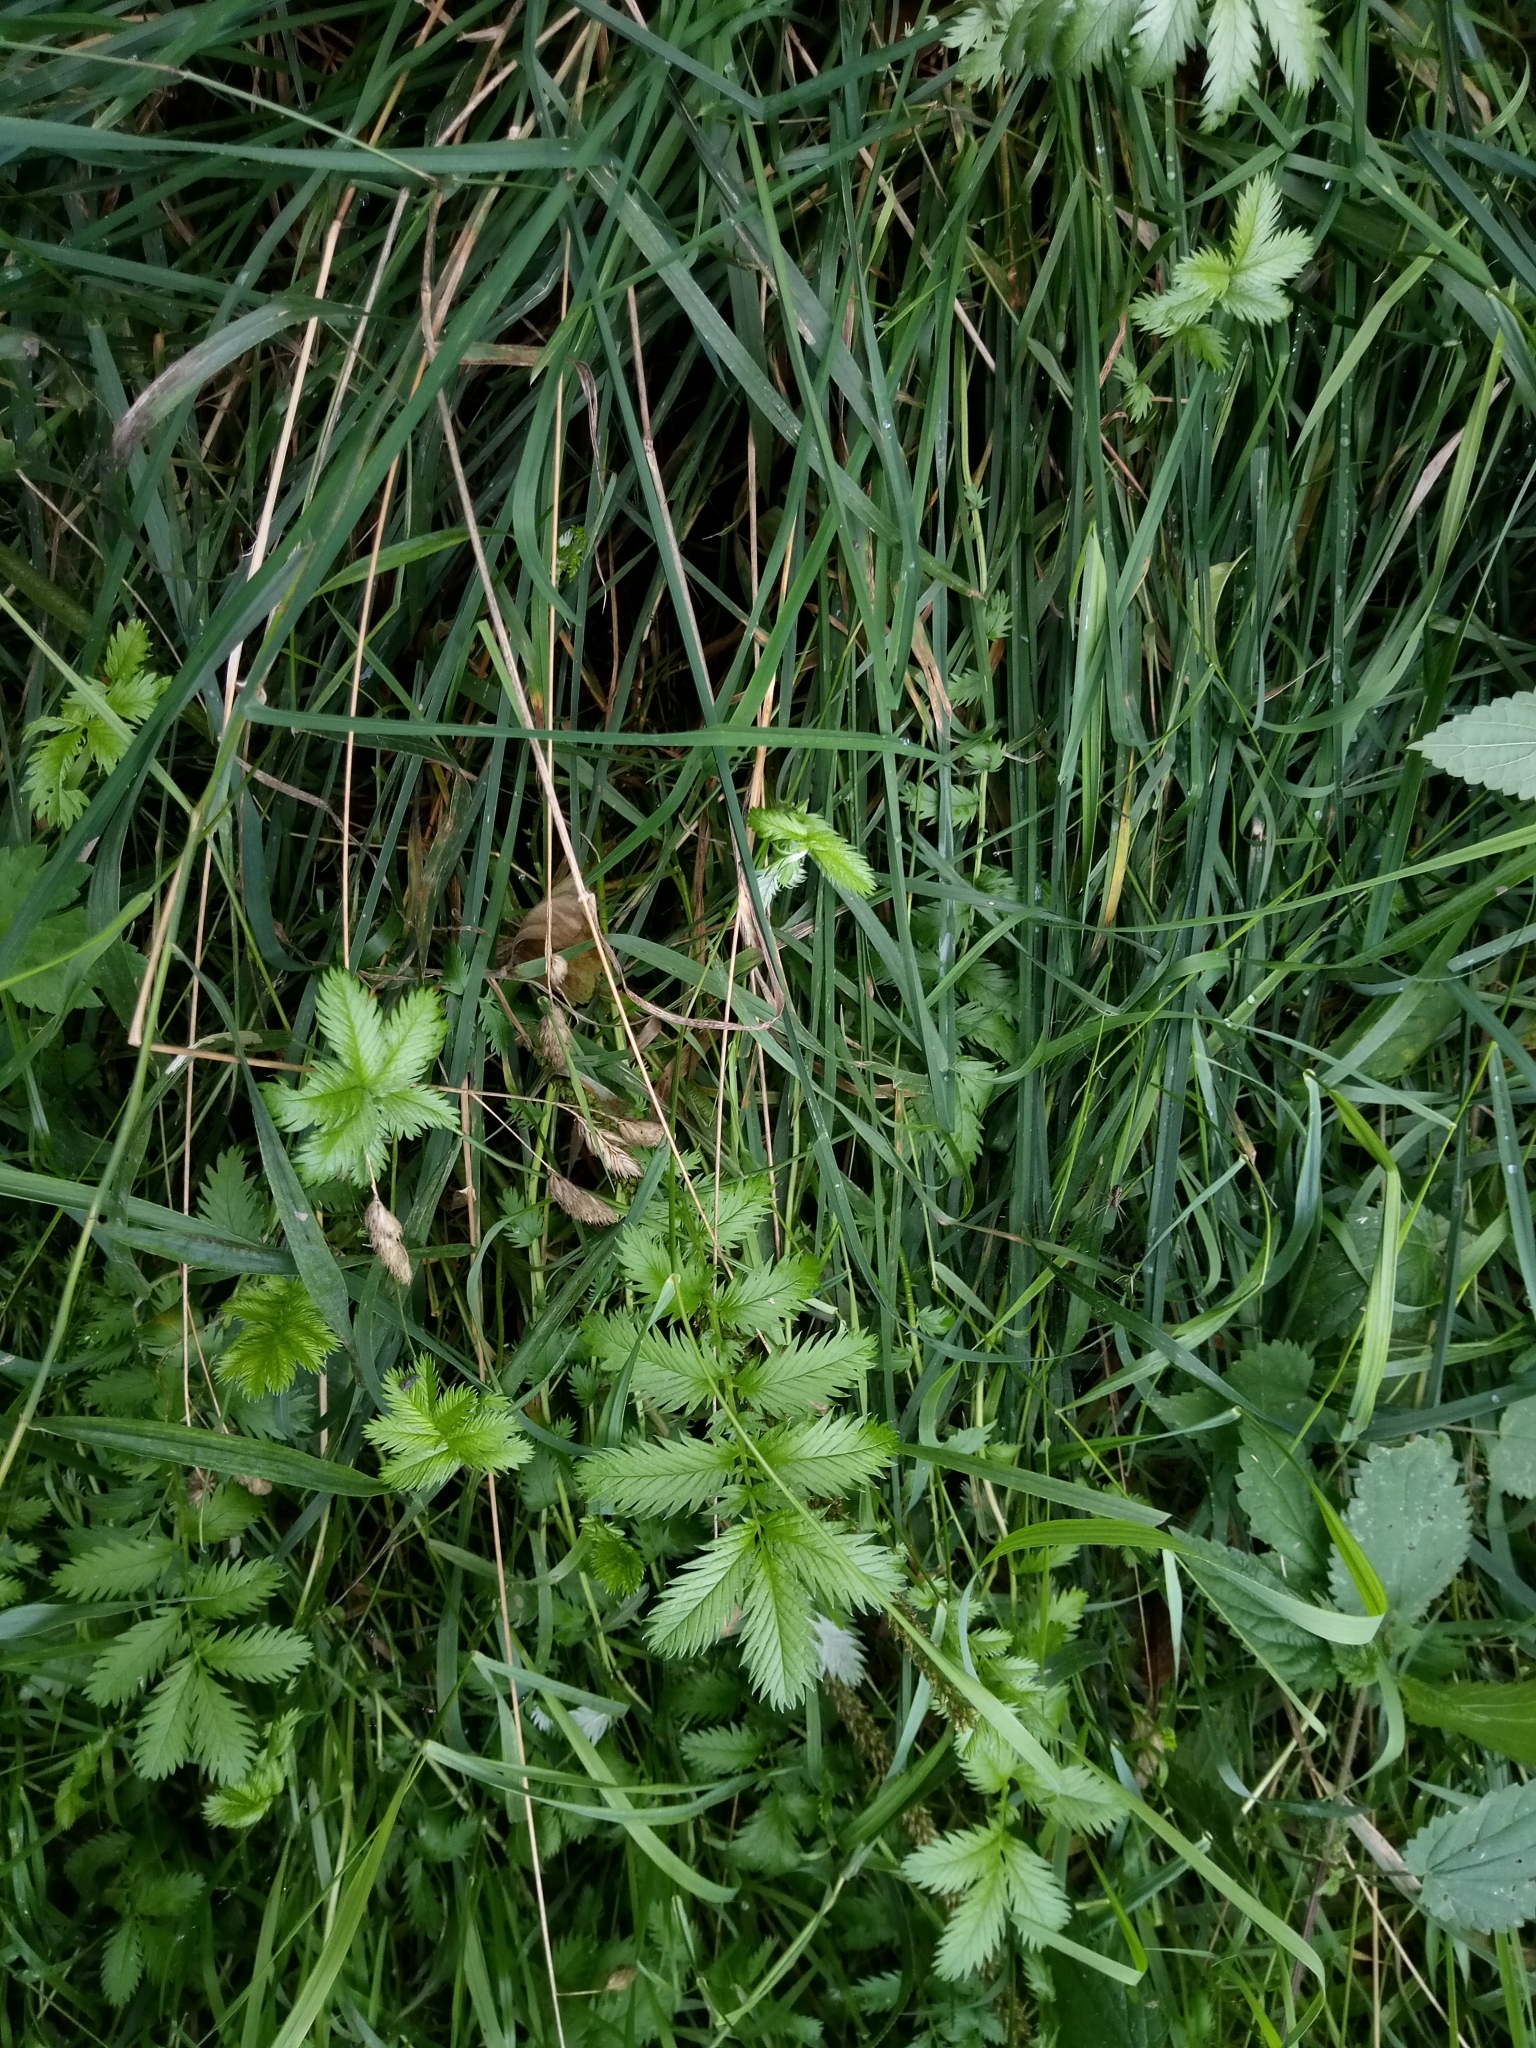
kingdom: Plantae
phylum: Tracheophyta
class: Magnoliopsida
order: Rosales
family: Rosaceae
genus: Argentina
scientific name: Argentina anserina
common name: Common silverweed
